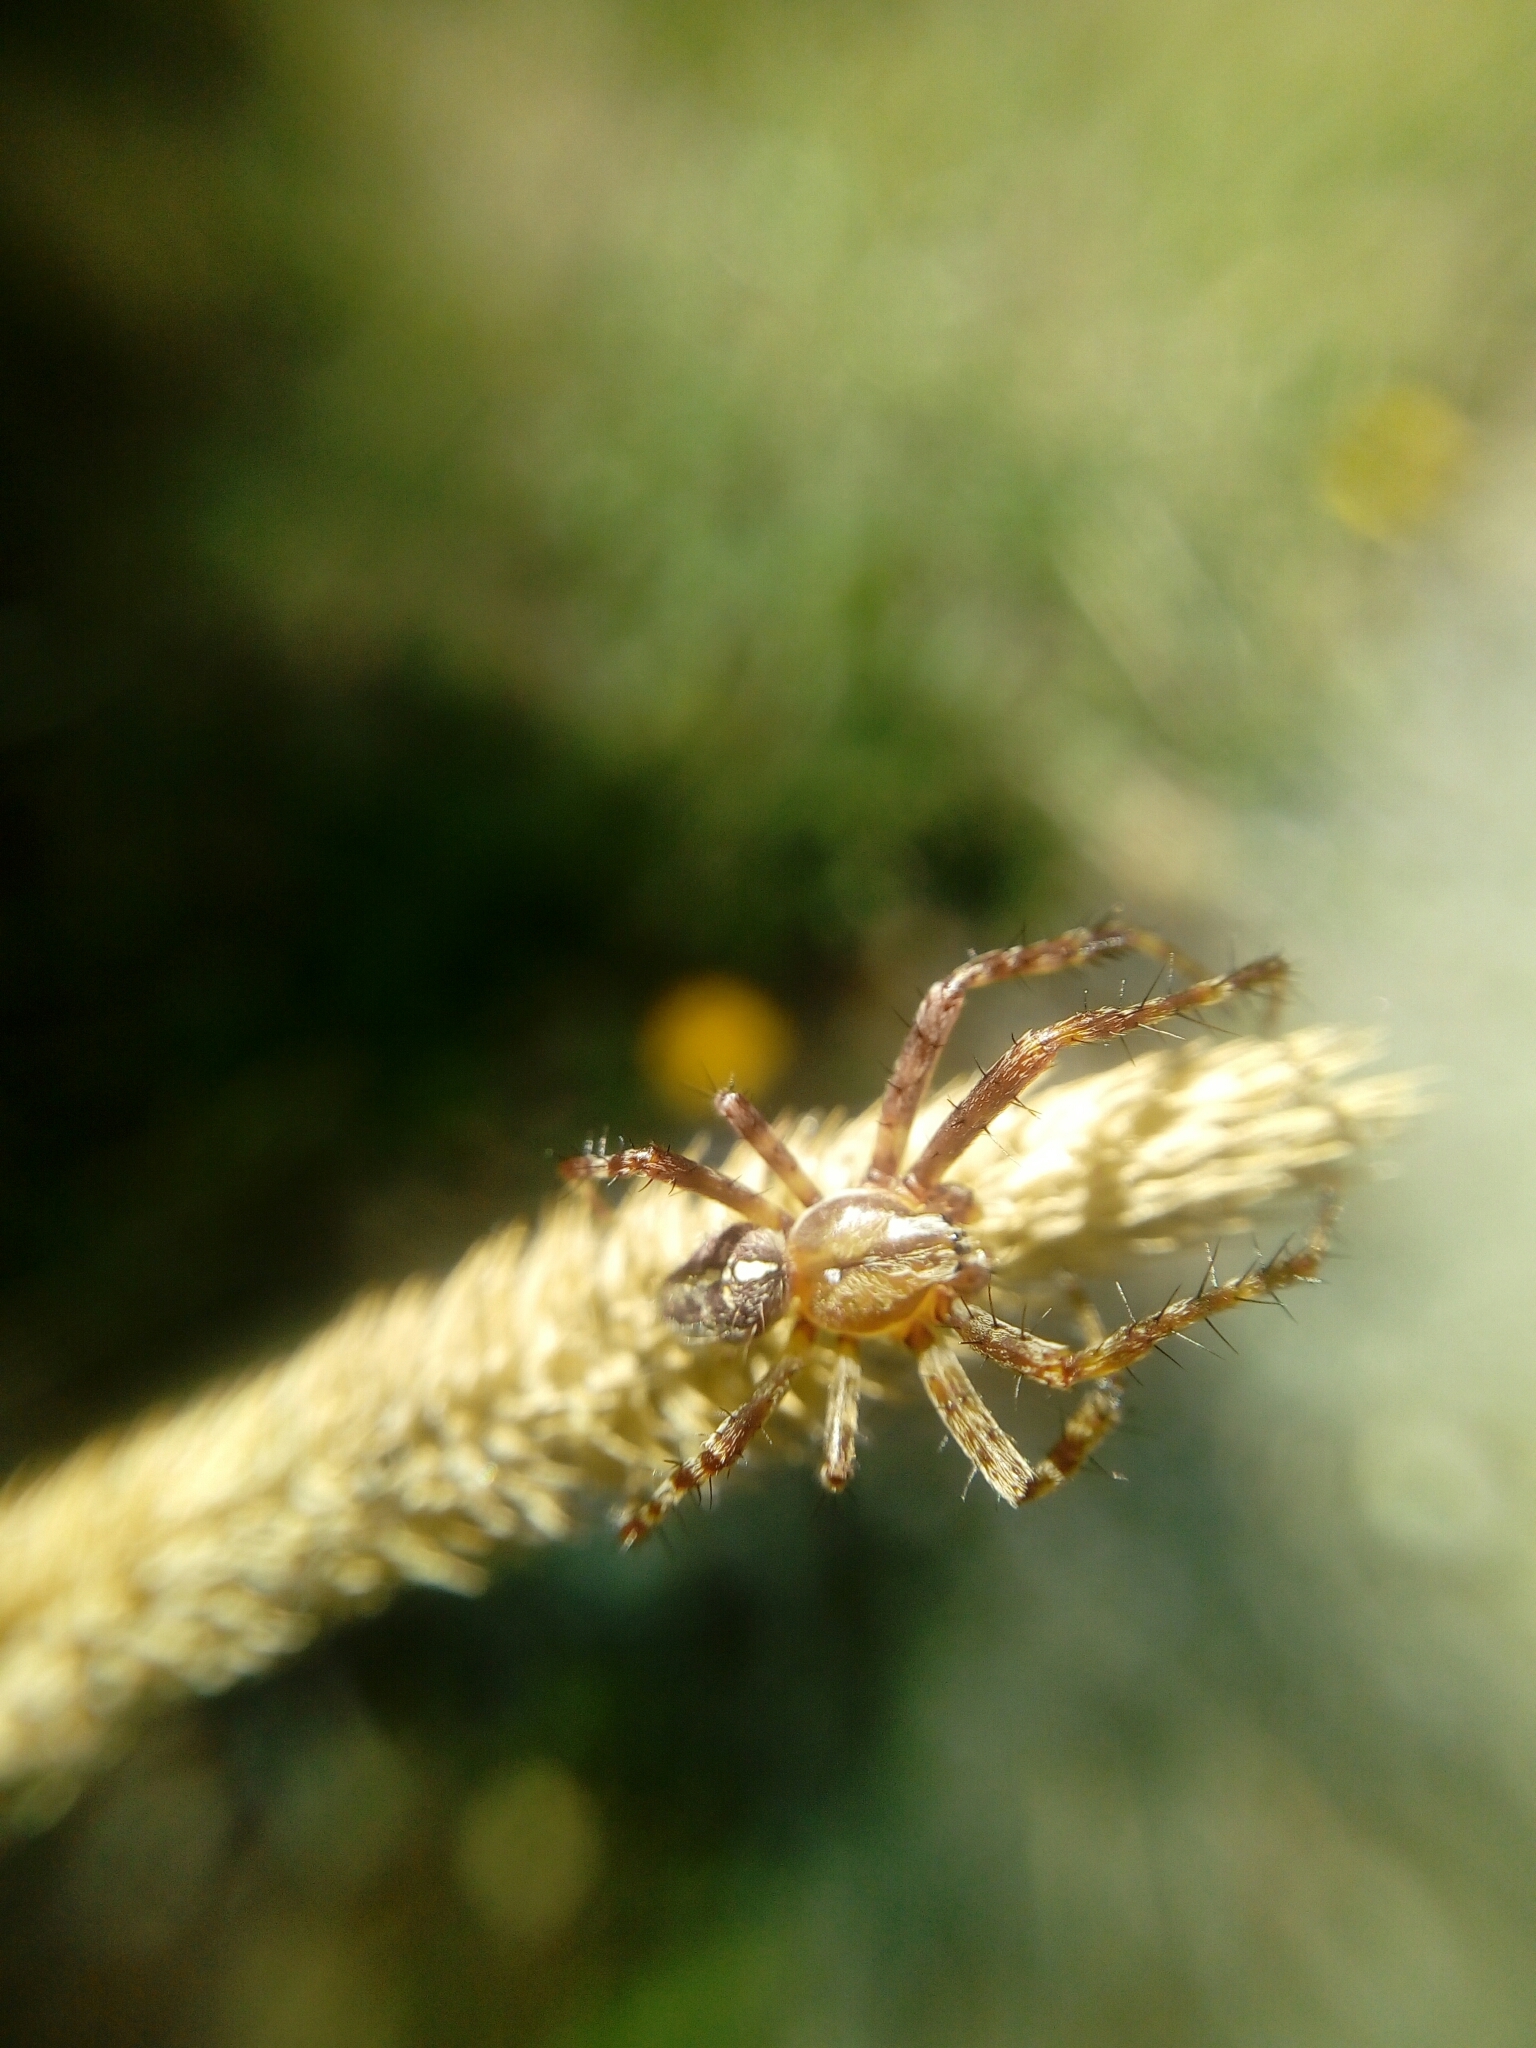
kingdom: Animalia
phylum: Arthropoda
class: Arachnida
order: Araneae
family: Araneidae
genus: Araneus
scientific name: Araneus diadematus
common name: Cross orbweaver
